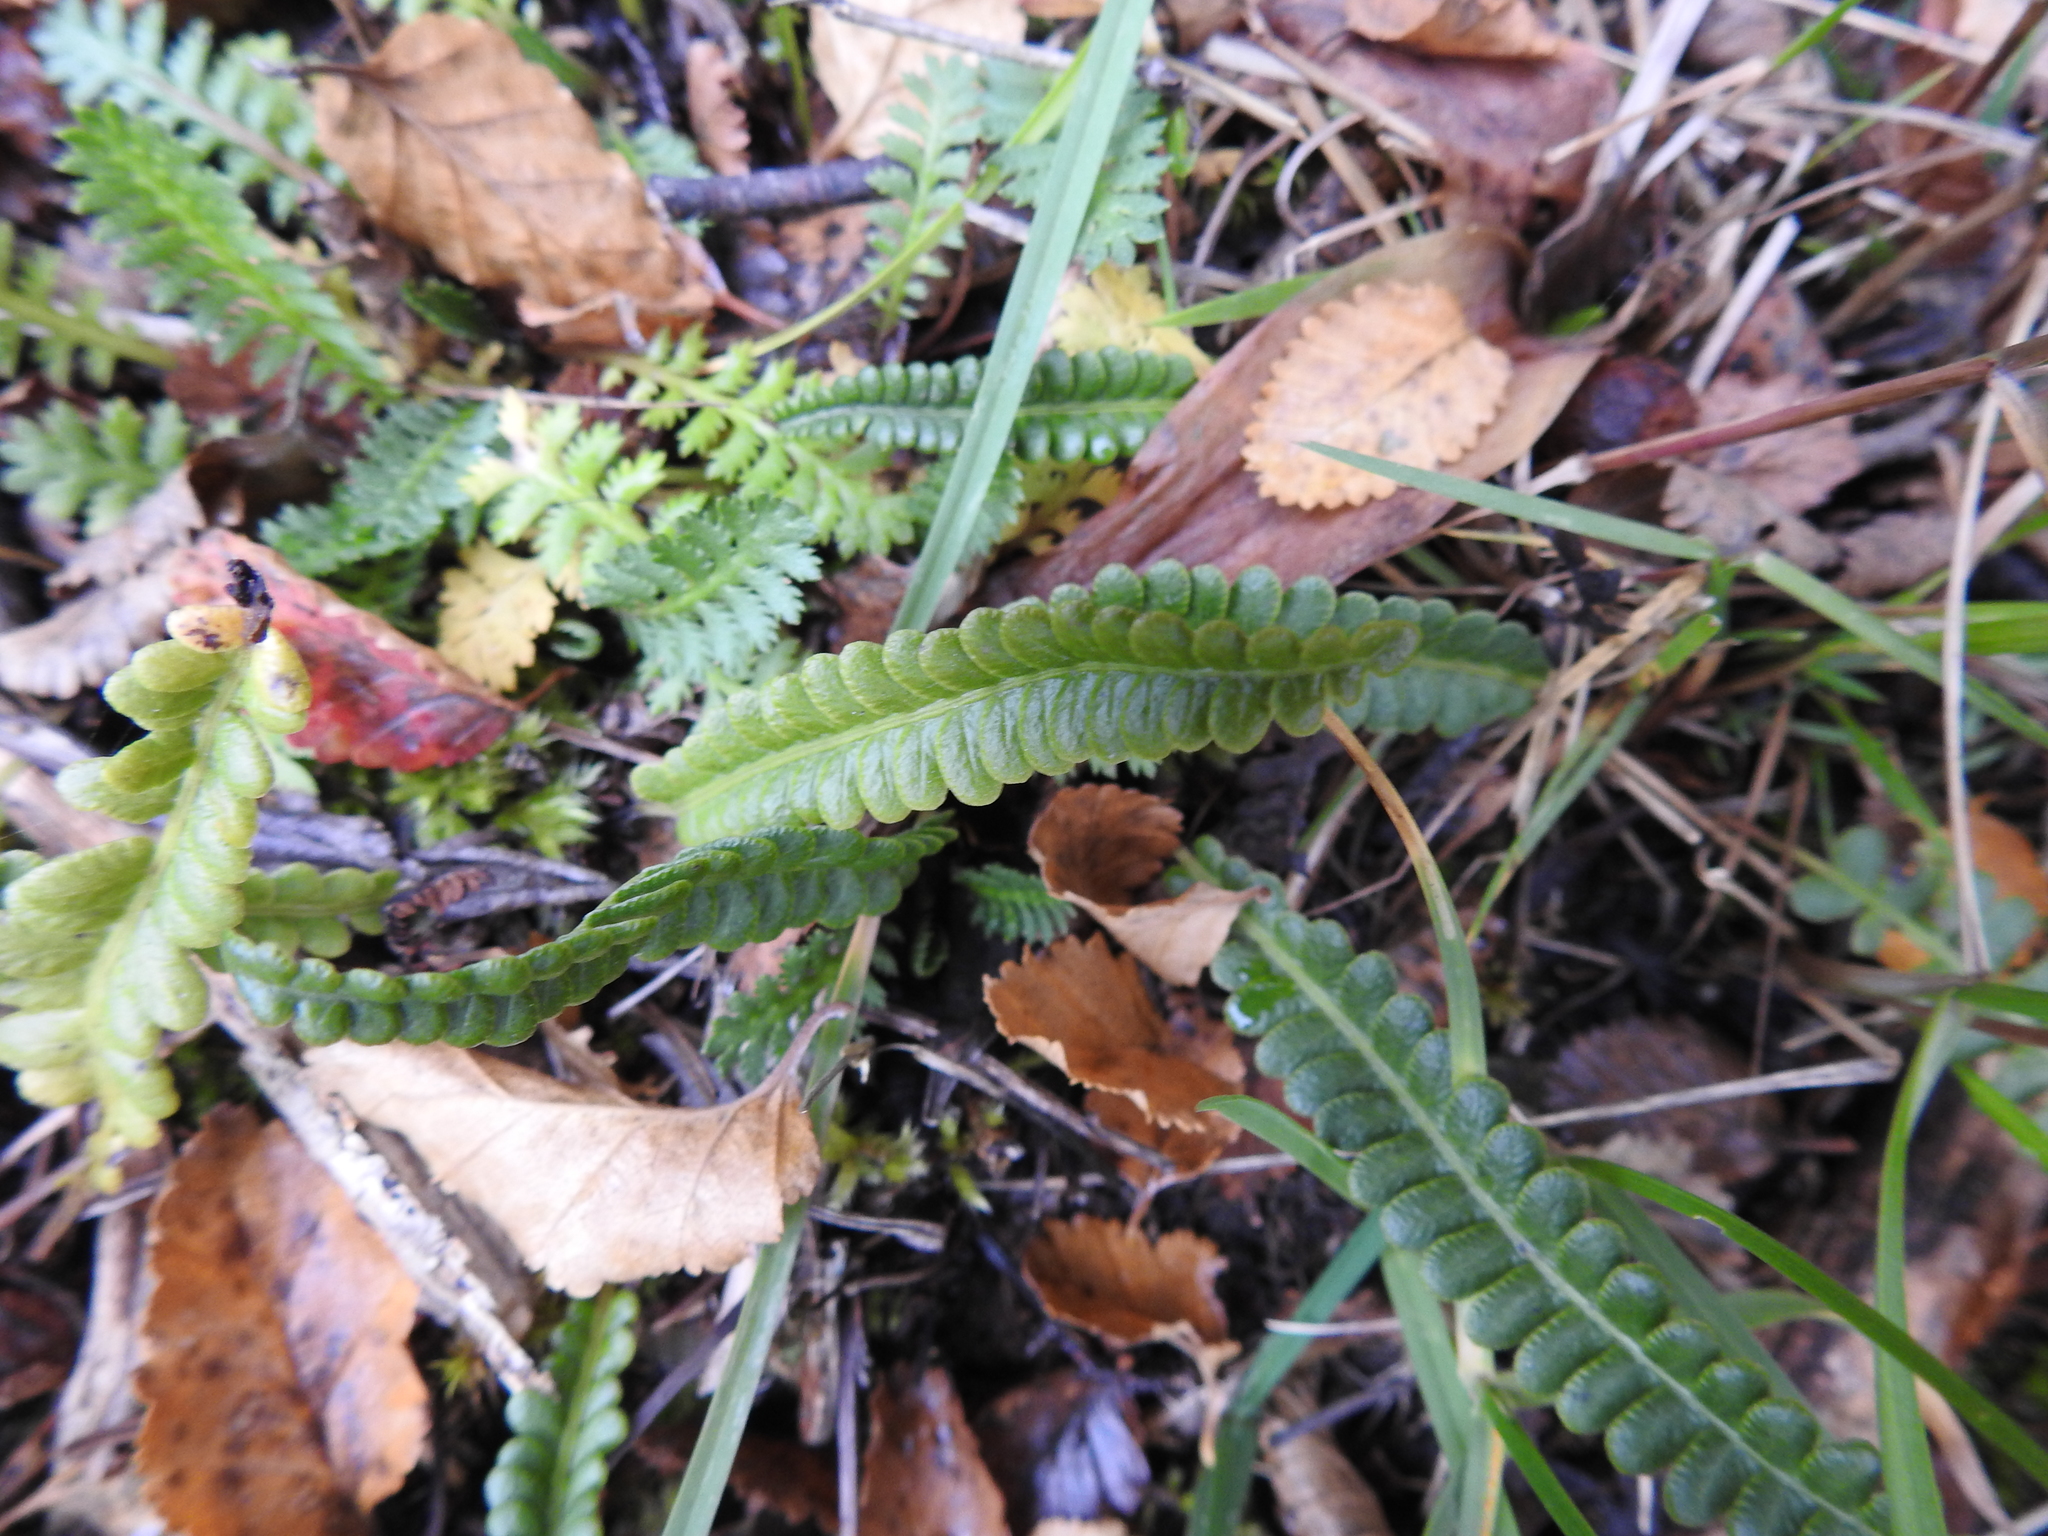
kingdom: Plantae
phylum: Tracheophyta
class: Polypodiopsida
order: Polypodiales
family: Blechnaceae
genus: Austroblechnum
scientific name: Austroblechnum penna-marina
